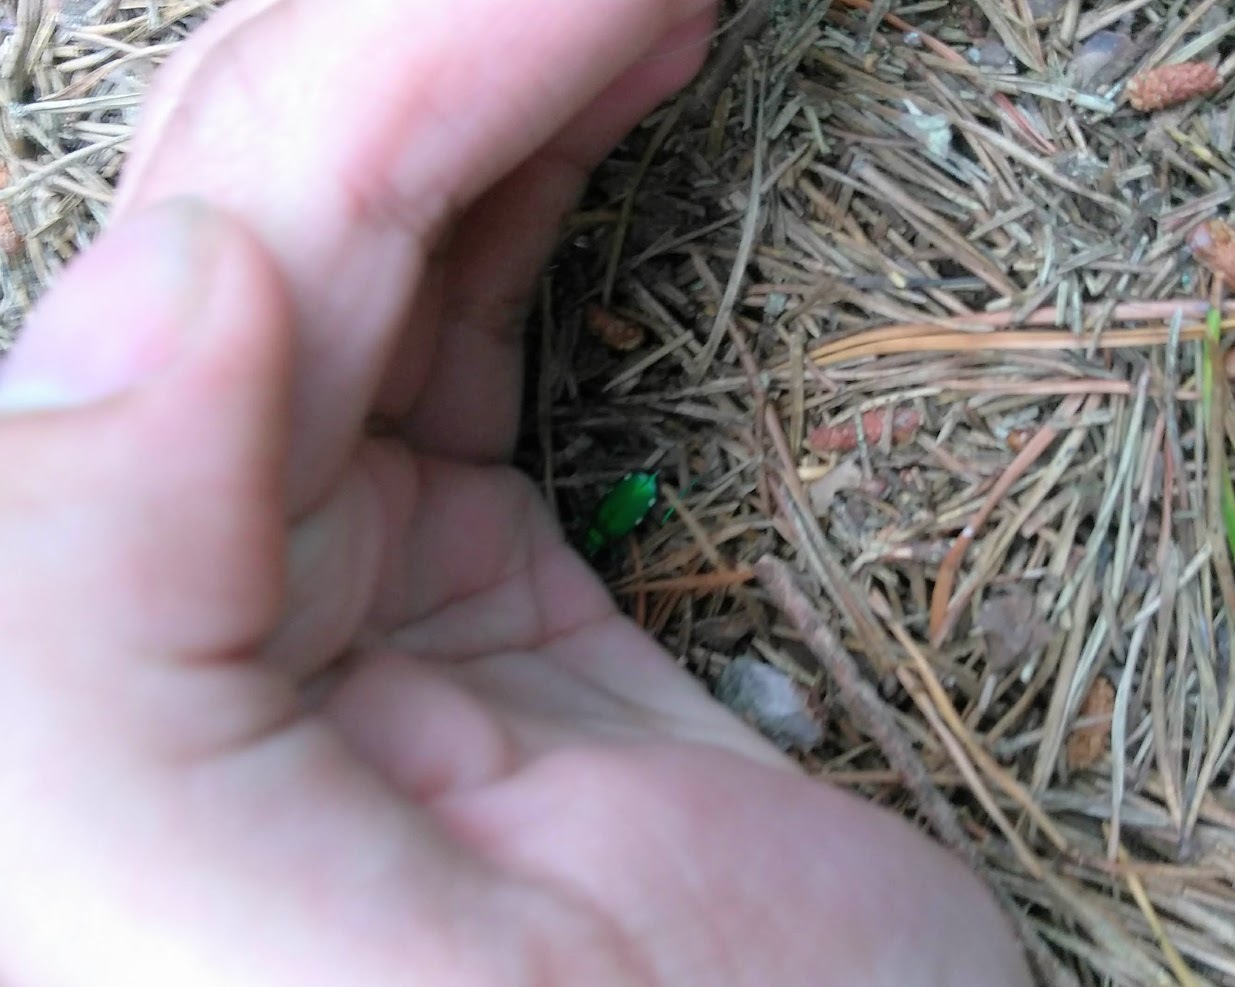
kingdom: Animalia
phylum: Arthropoda
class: Insecta
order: Coleoptera
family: Carabidae
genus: Cicindela
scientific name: Cicindela sexguttata
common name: Six-spotted tiger beetle
